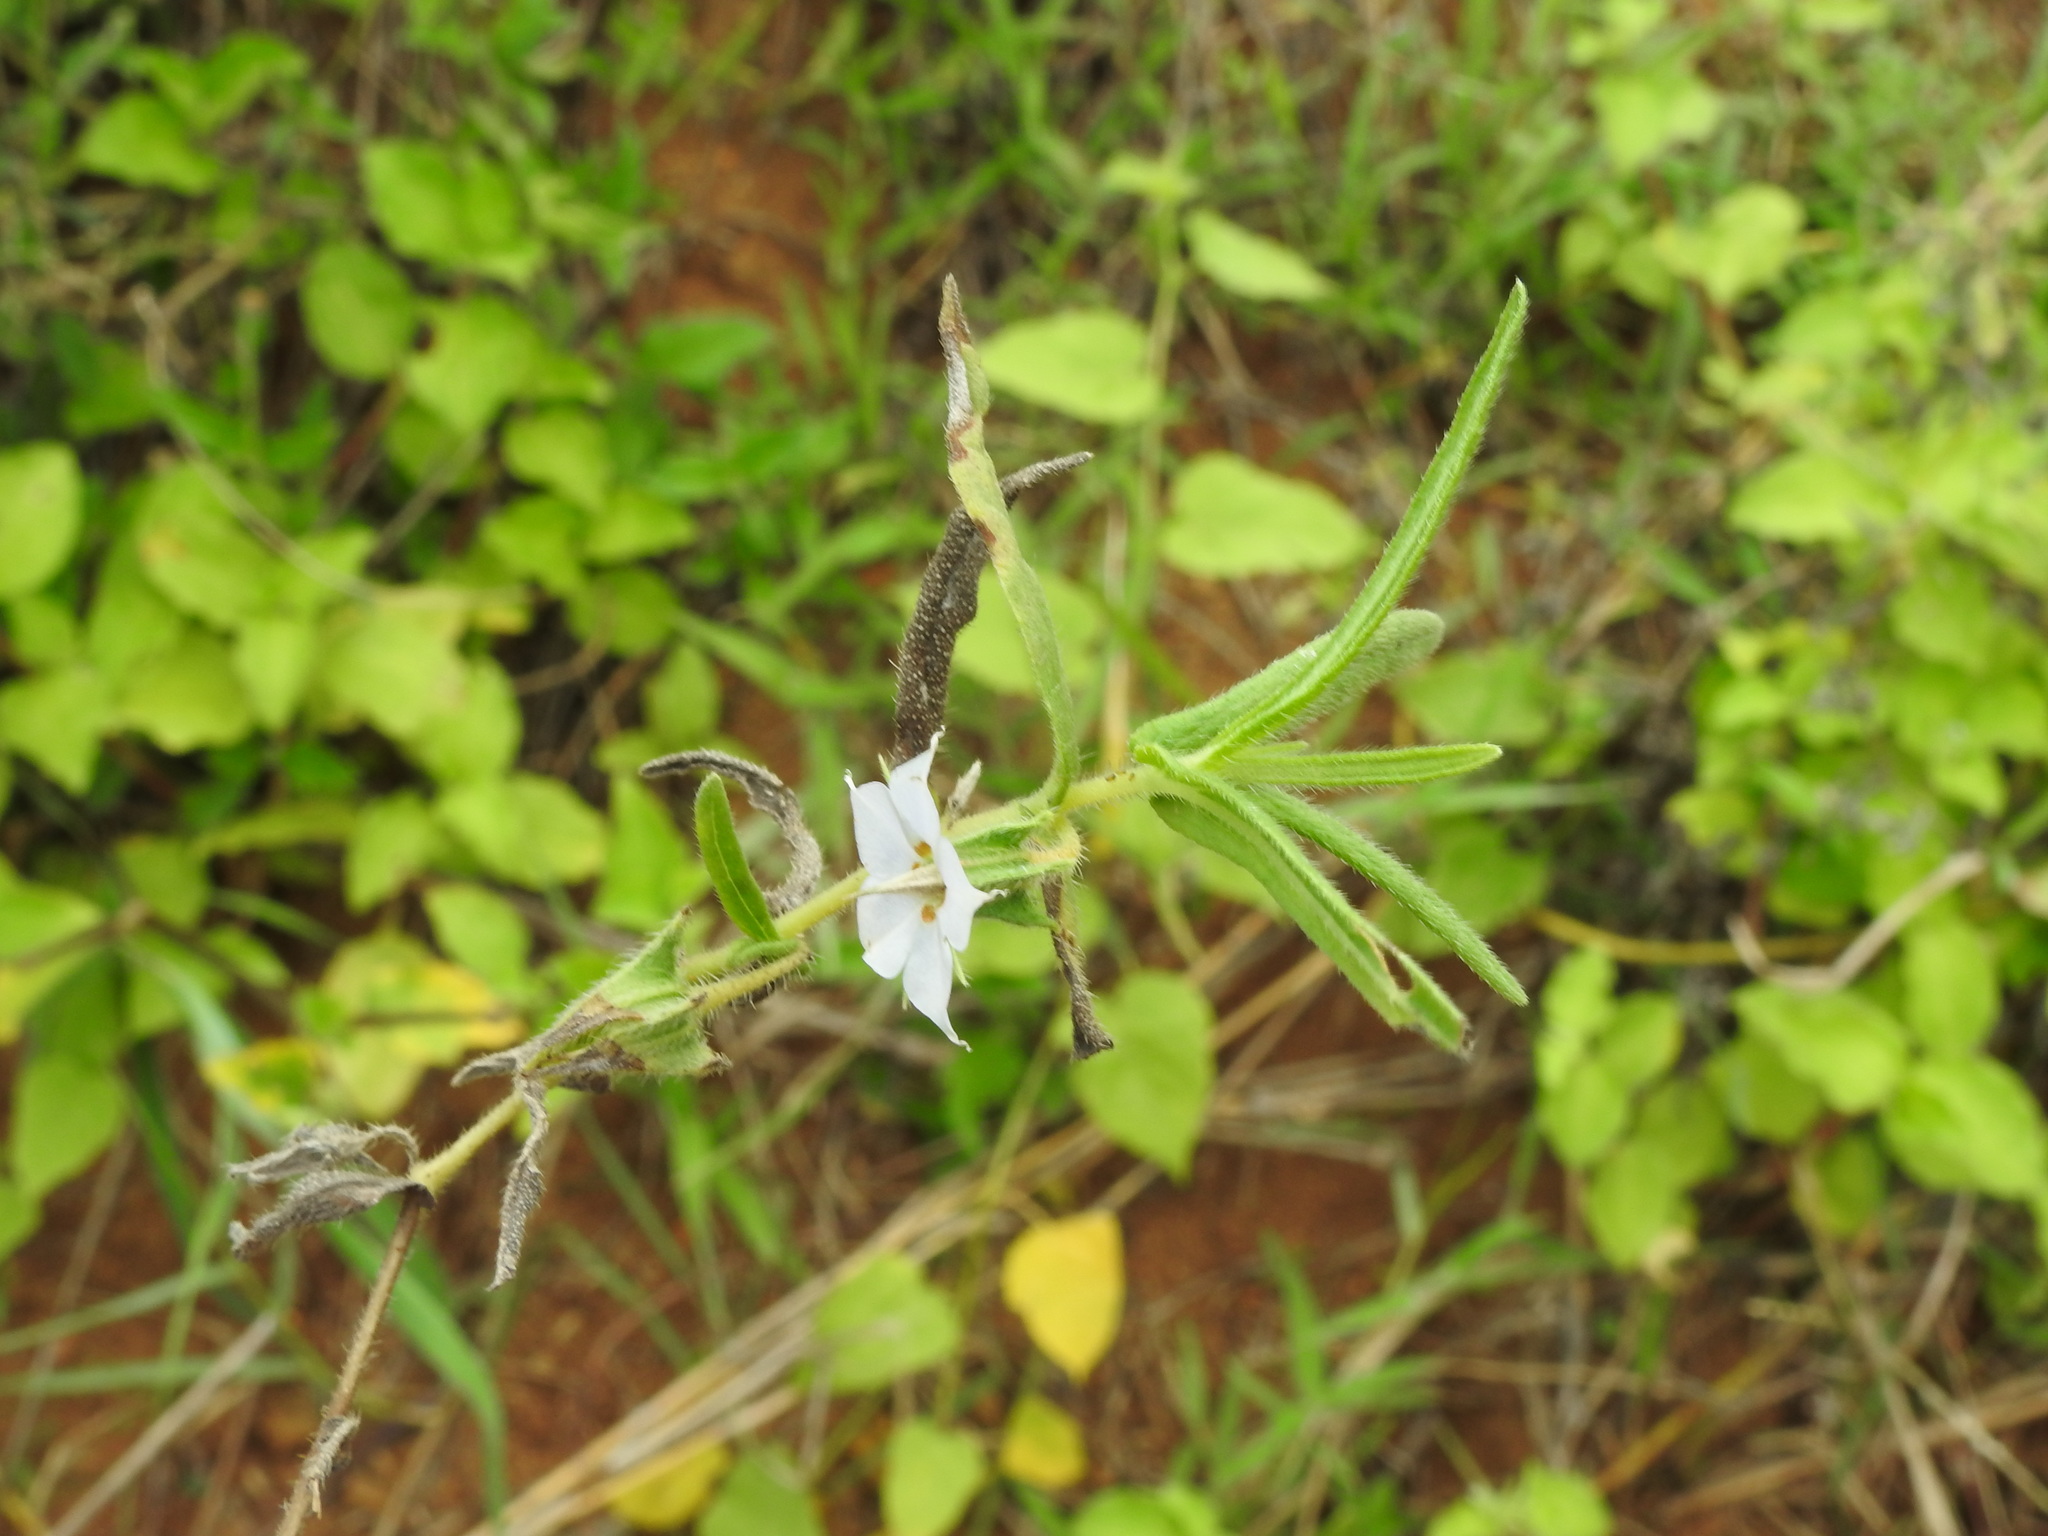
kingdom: Plantae
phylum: Tracheophyta
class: Magnoliopsida
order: Boraginales
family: Boraginaceae
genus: Trichodesma
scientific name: Trichodesma indicum
